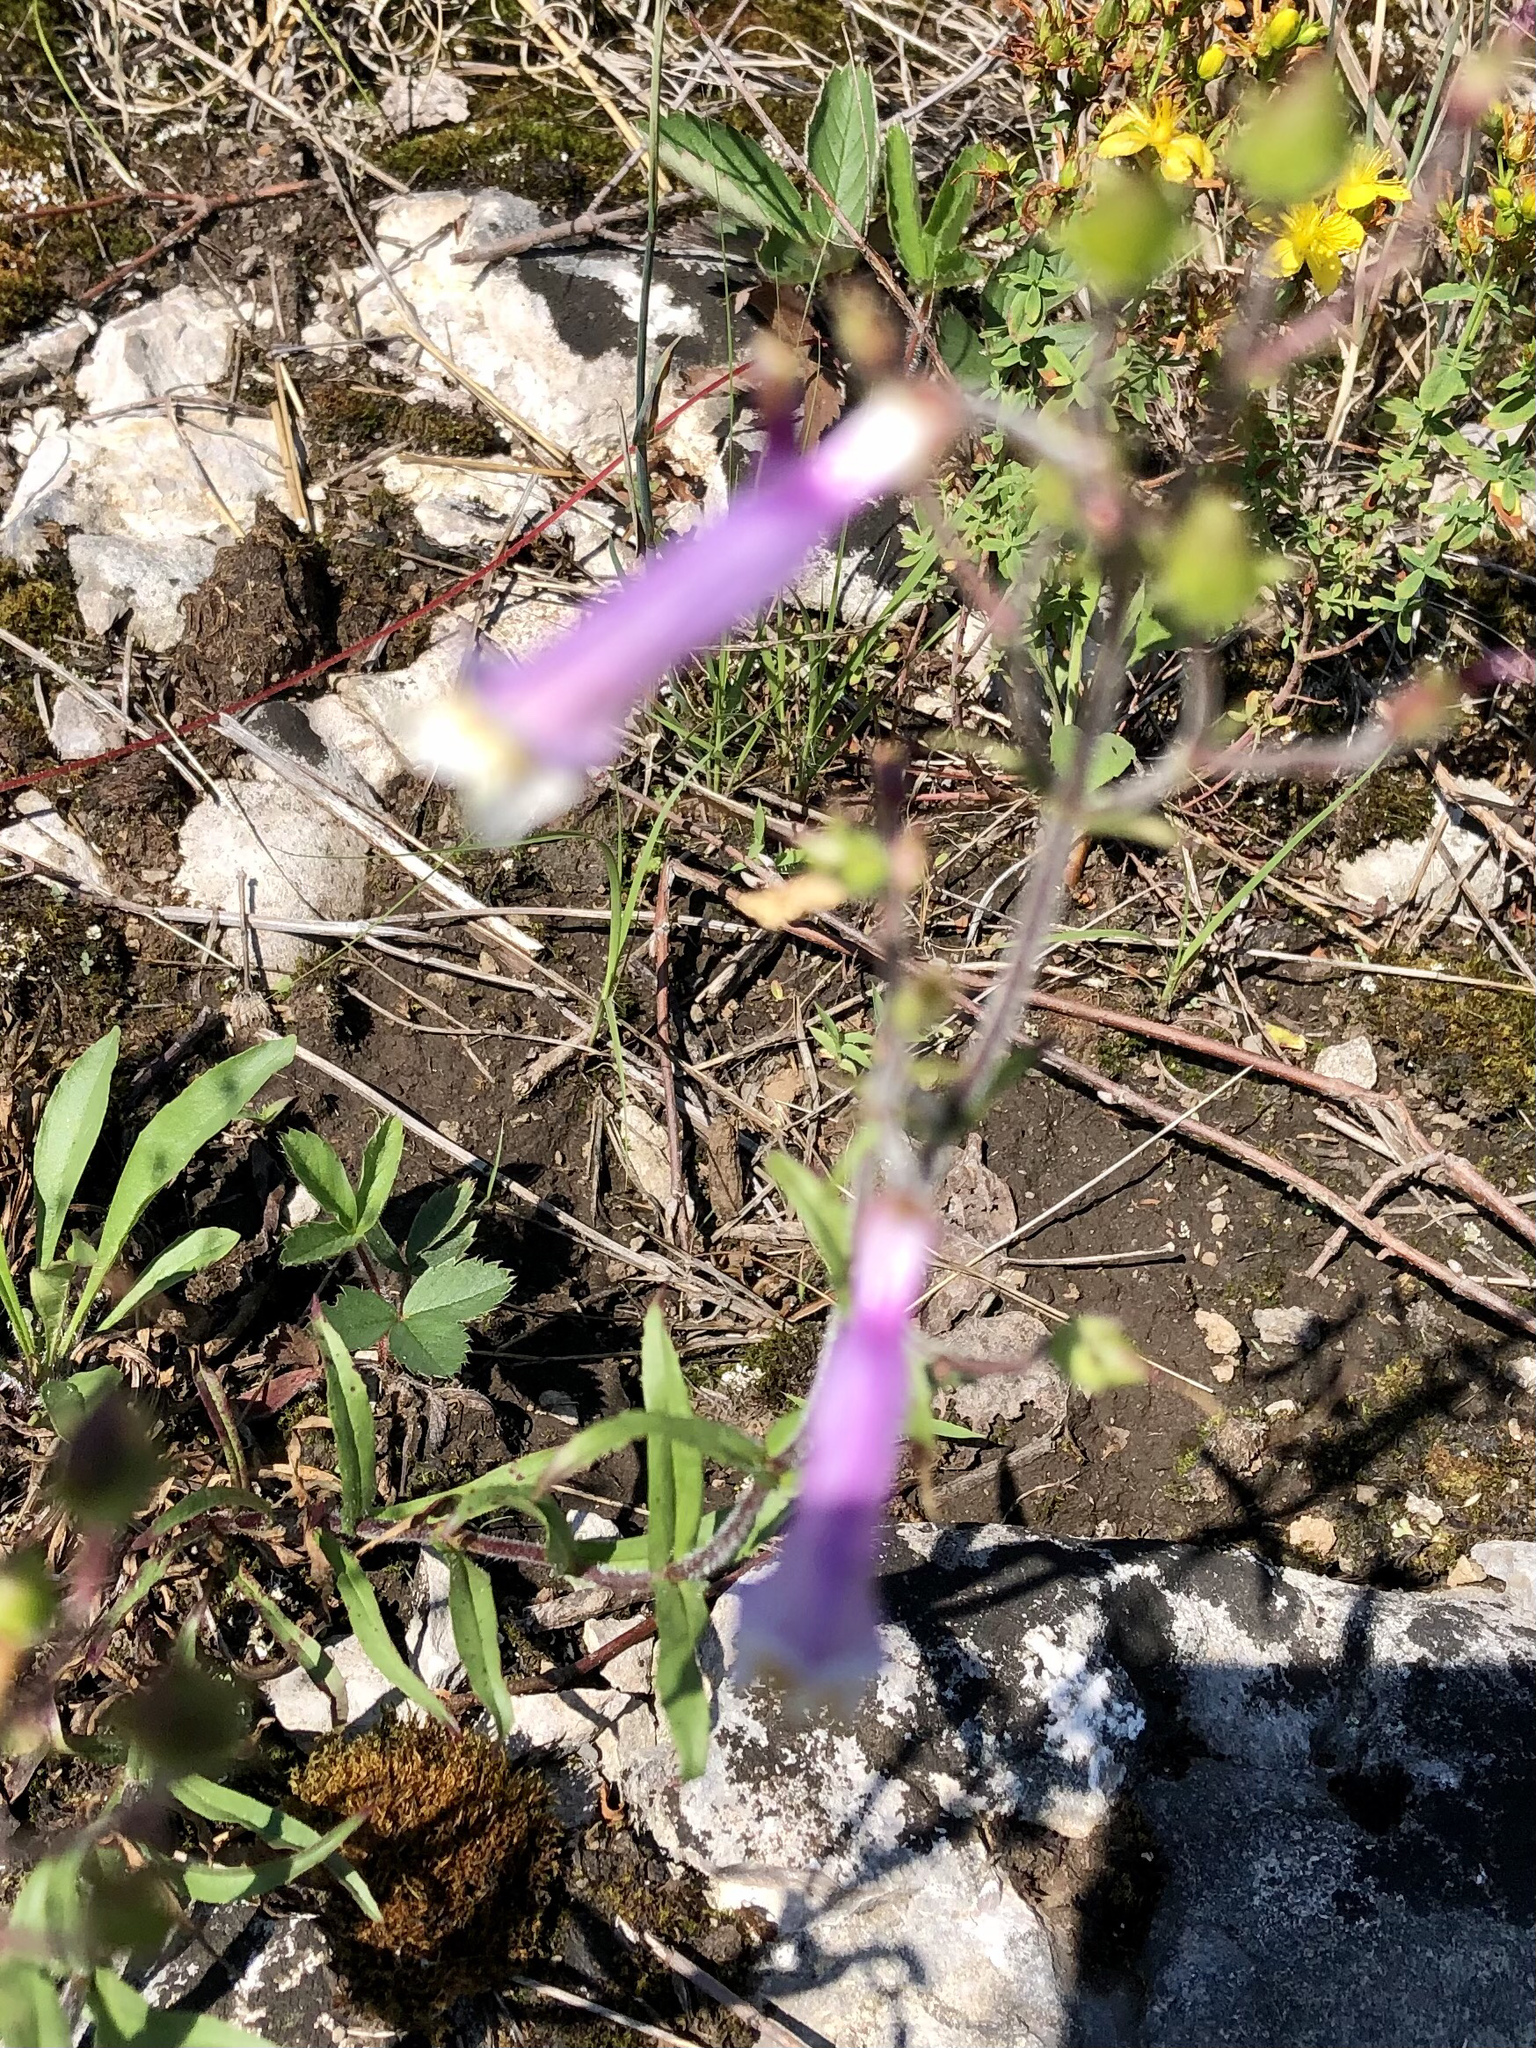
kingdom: Plantae
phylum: Tracheophyta
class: Magnoliopsida
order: Lamiales
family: Plantaginaceae
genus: Penstemon
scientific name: Penstemon hirsutus
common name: Hairy beardtongue
